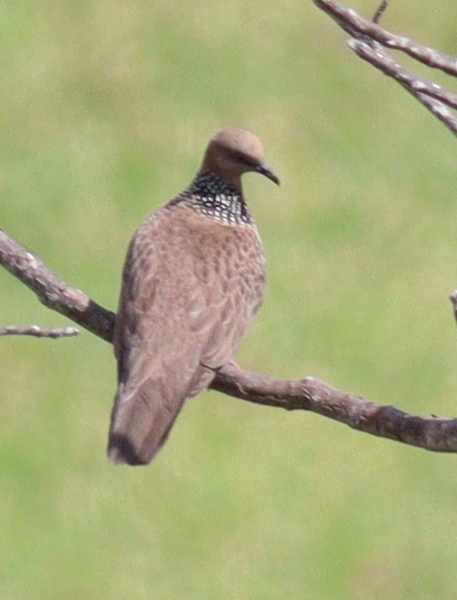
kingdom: Animalia
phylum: Chordata
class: Aves
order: Columbiformes
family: Columbidae
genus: Spilopelia
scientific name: Spilopelia chinensis
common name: Spotted dove
